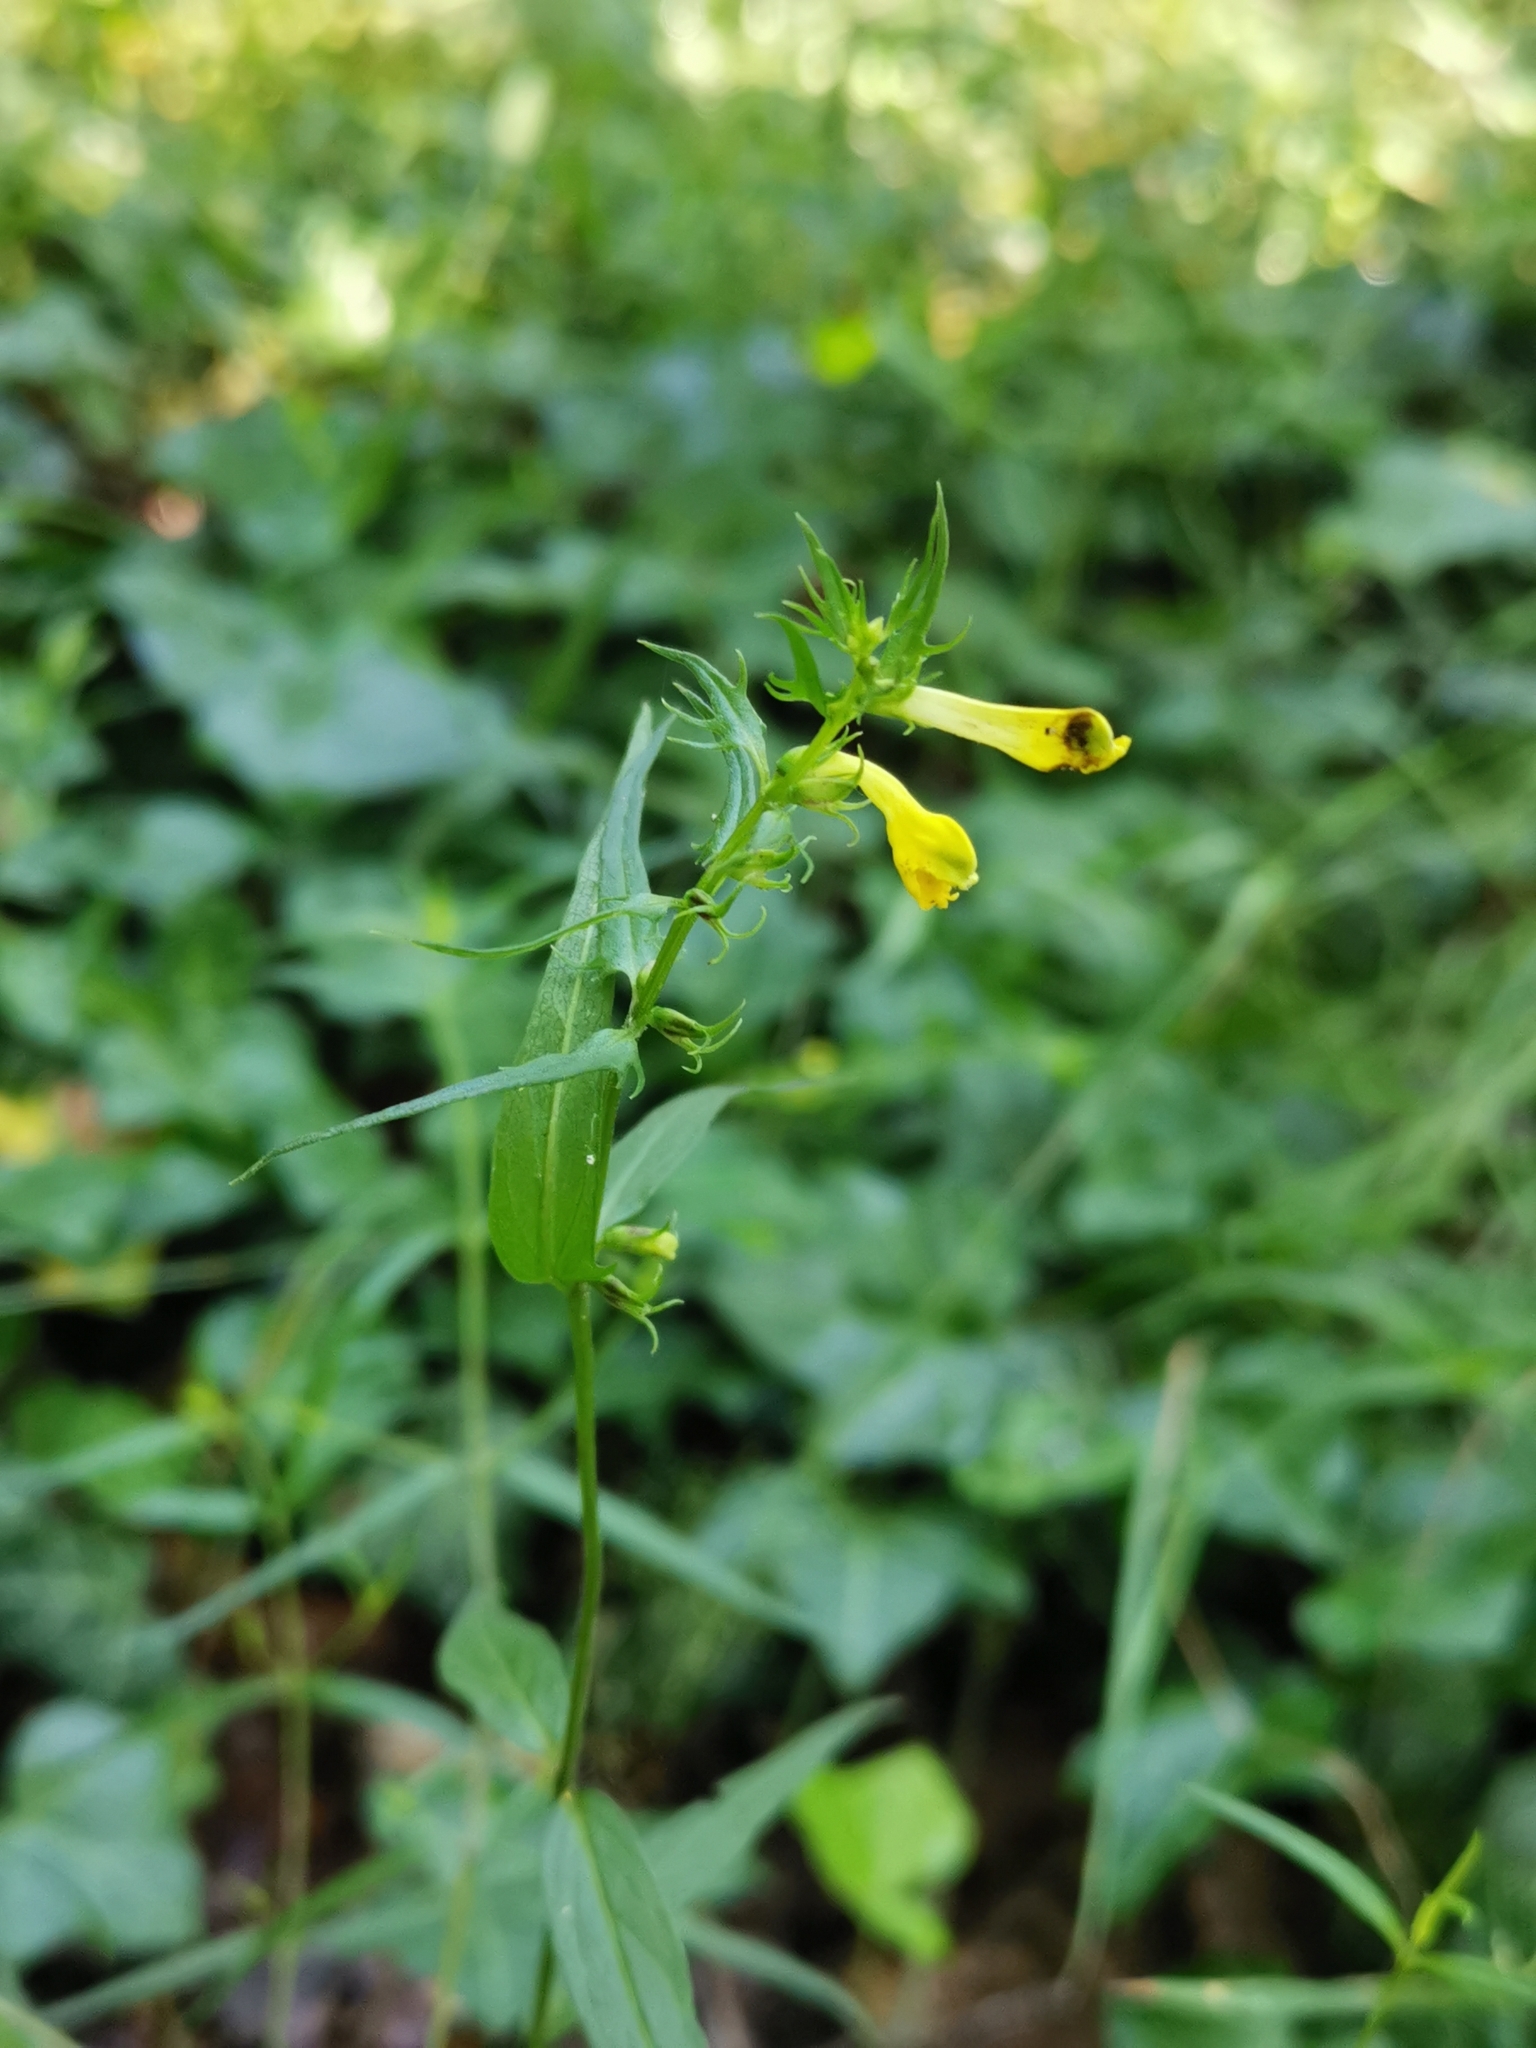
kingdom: Plantae
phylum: Tracheophyta
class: Magnoliopsida
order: Lamiales
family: Orobanchaceae
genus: Melampyrum
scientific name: Melampyrum pratense
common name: Common cow-wheat
